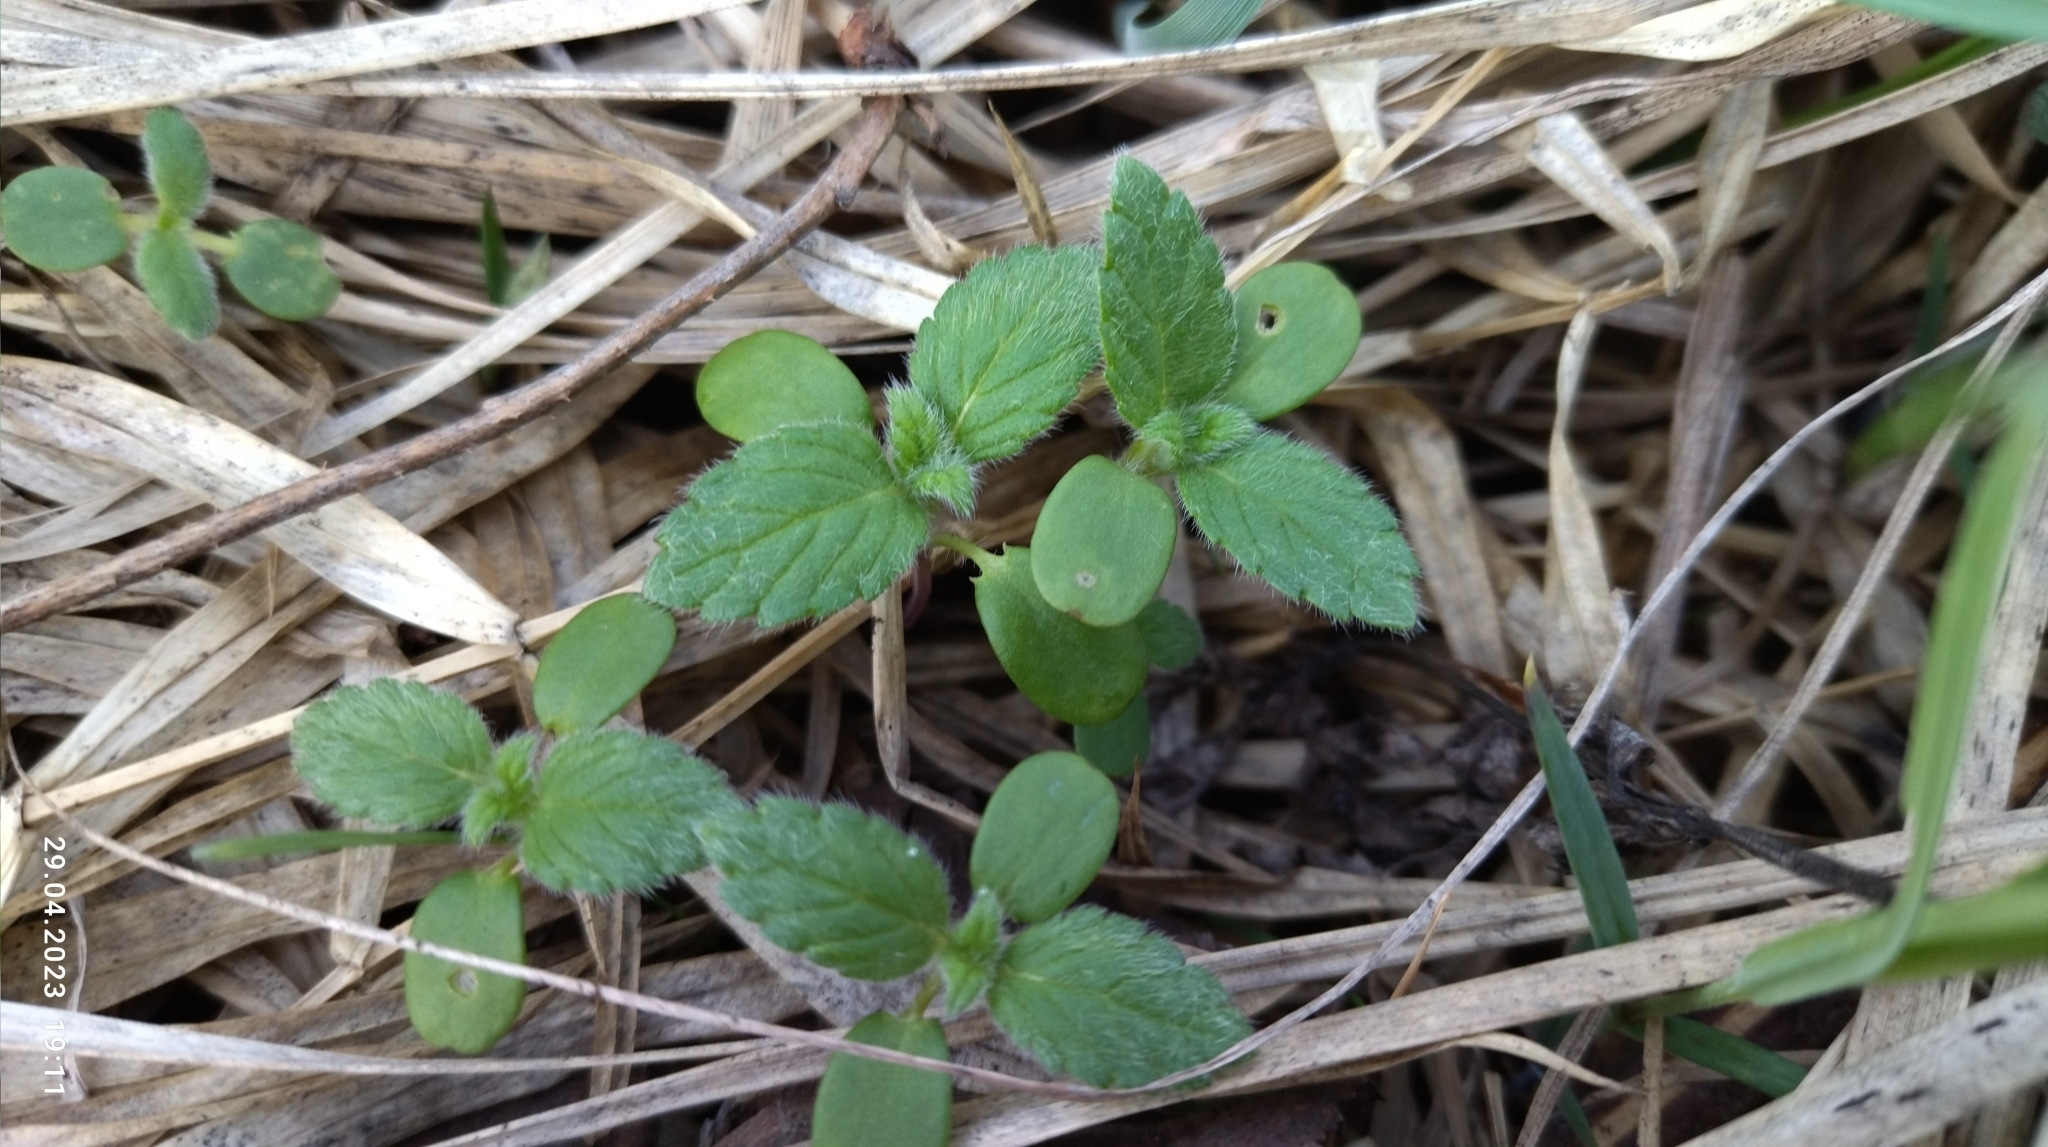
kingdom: Plantae
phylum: Tracheophyta
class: Magnoliopsida
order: Lamiales
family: Lamiaceae
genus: Galeopsis
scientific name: Galeopsis
